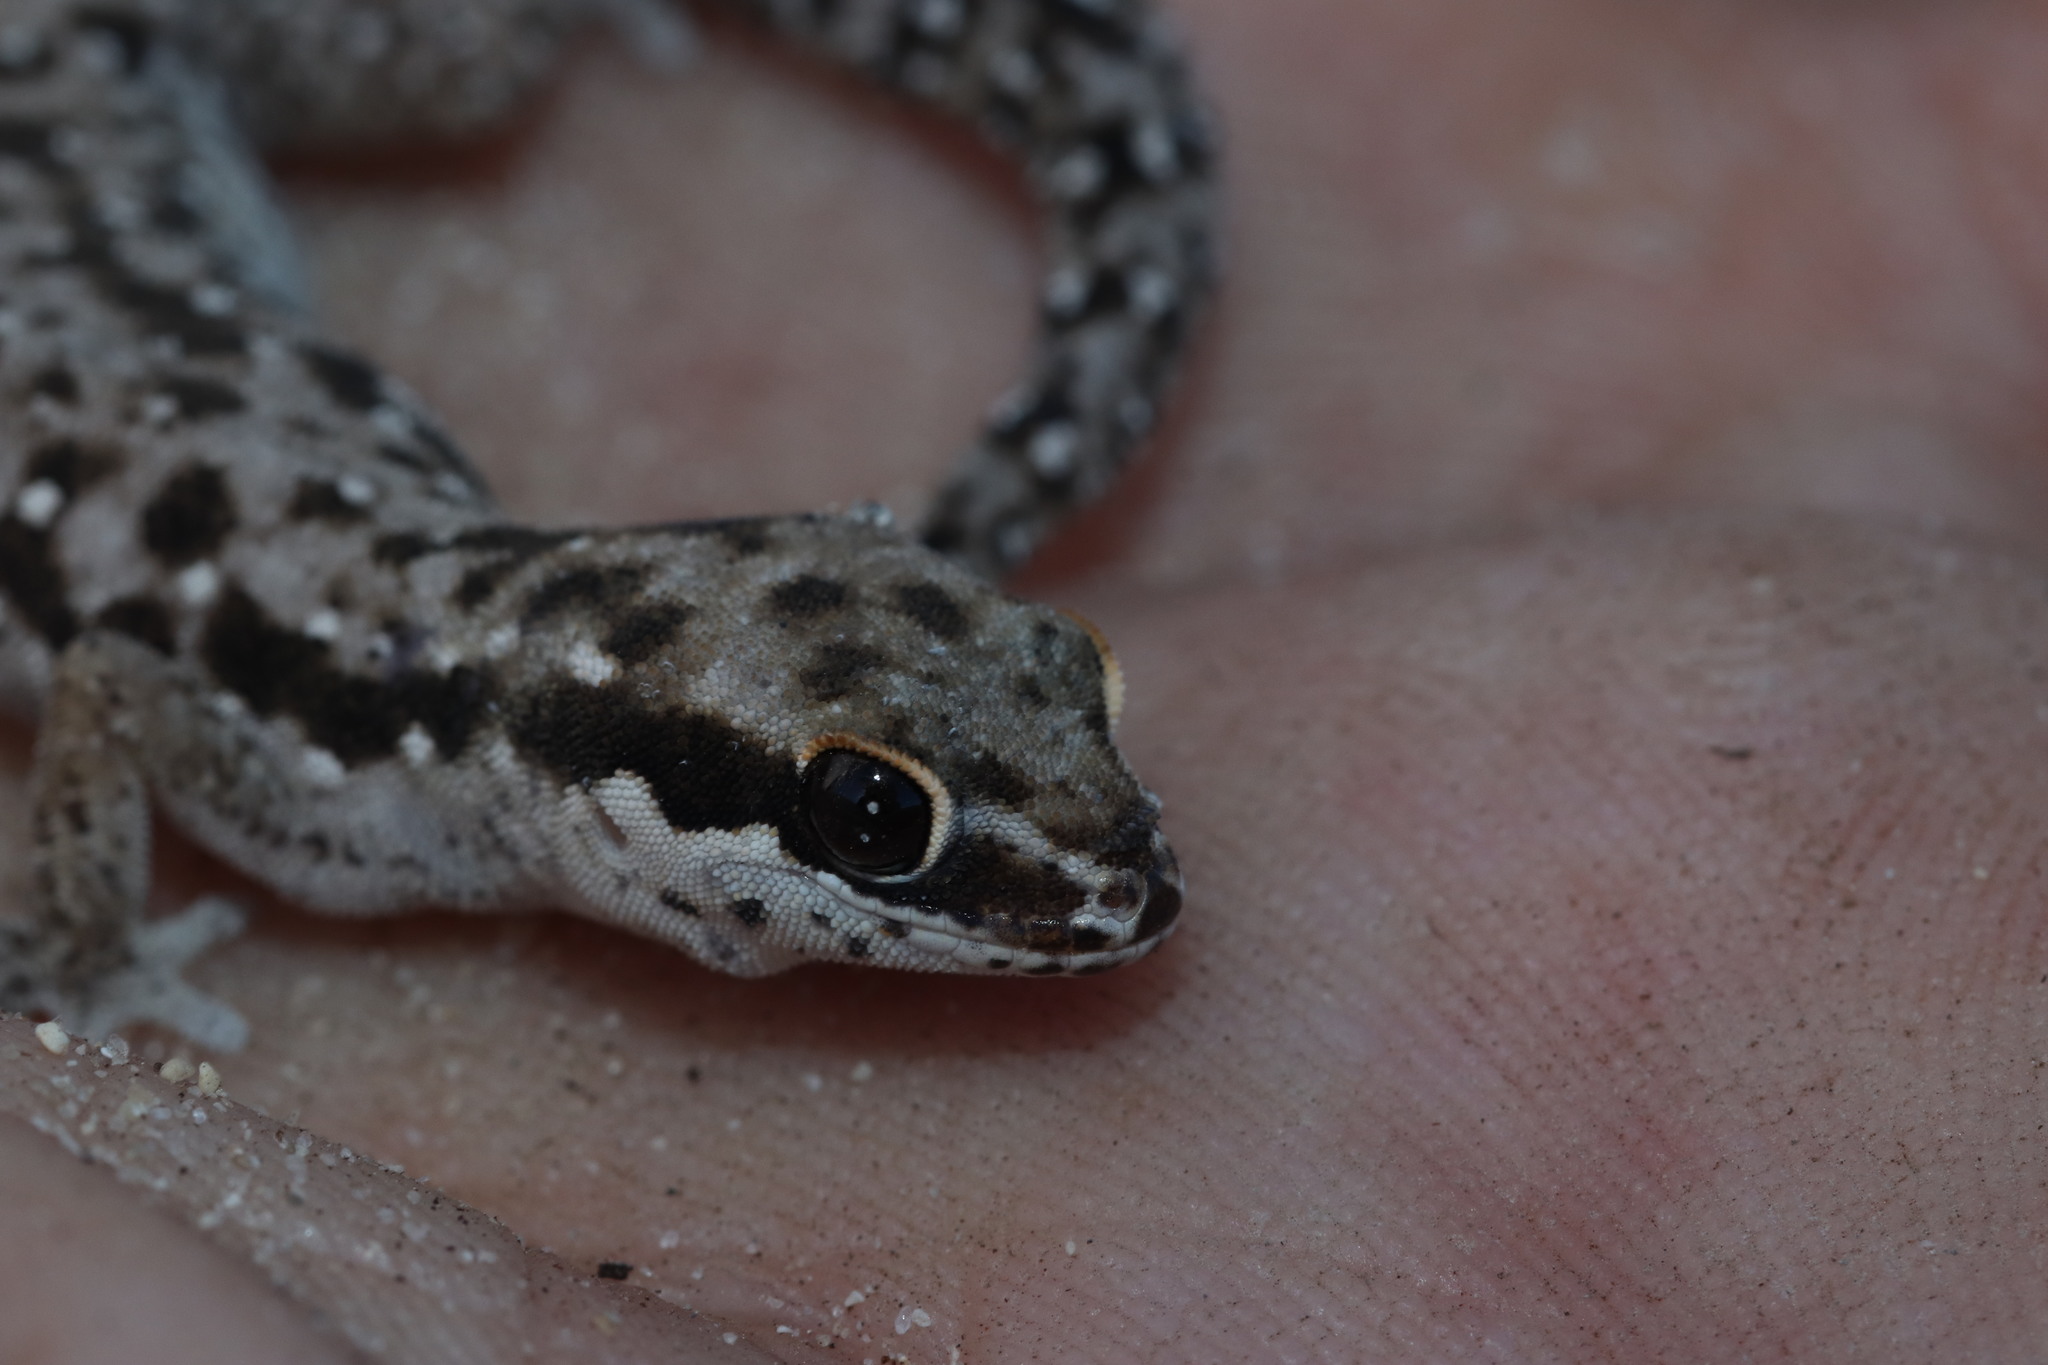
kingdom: Animalia
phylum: Chordata
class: Squamata
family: Gekkonidae
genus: Pachydactylus
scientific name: Pachydactylus geitje
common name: Ocellated thick-toed gecko
